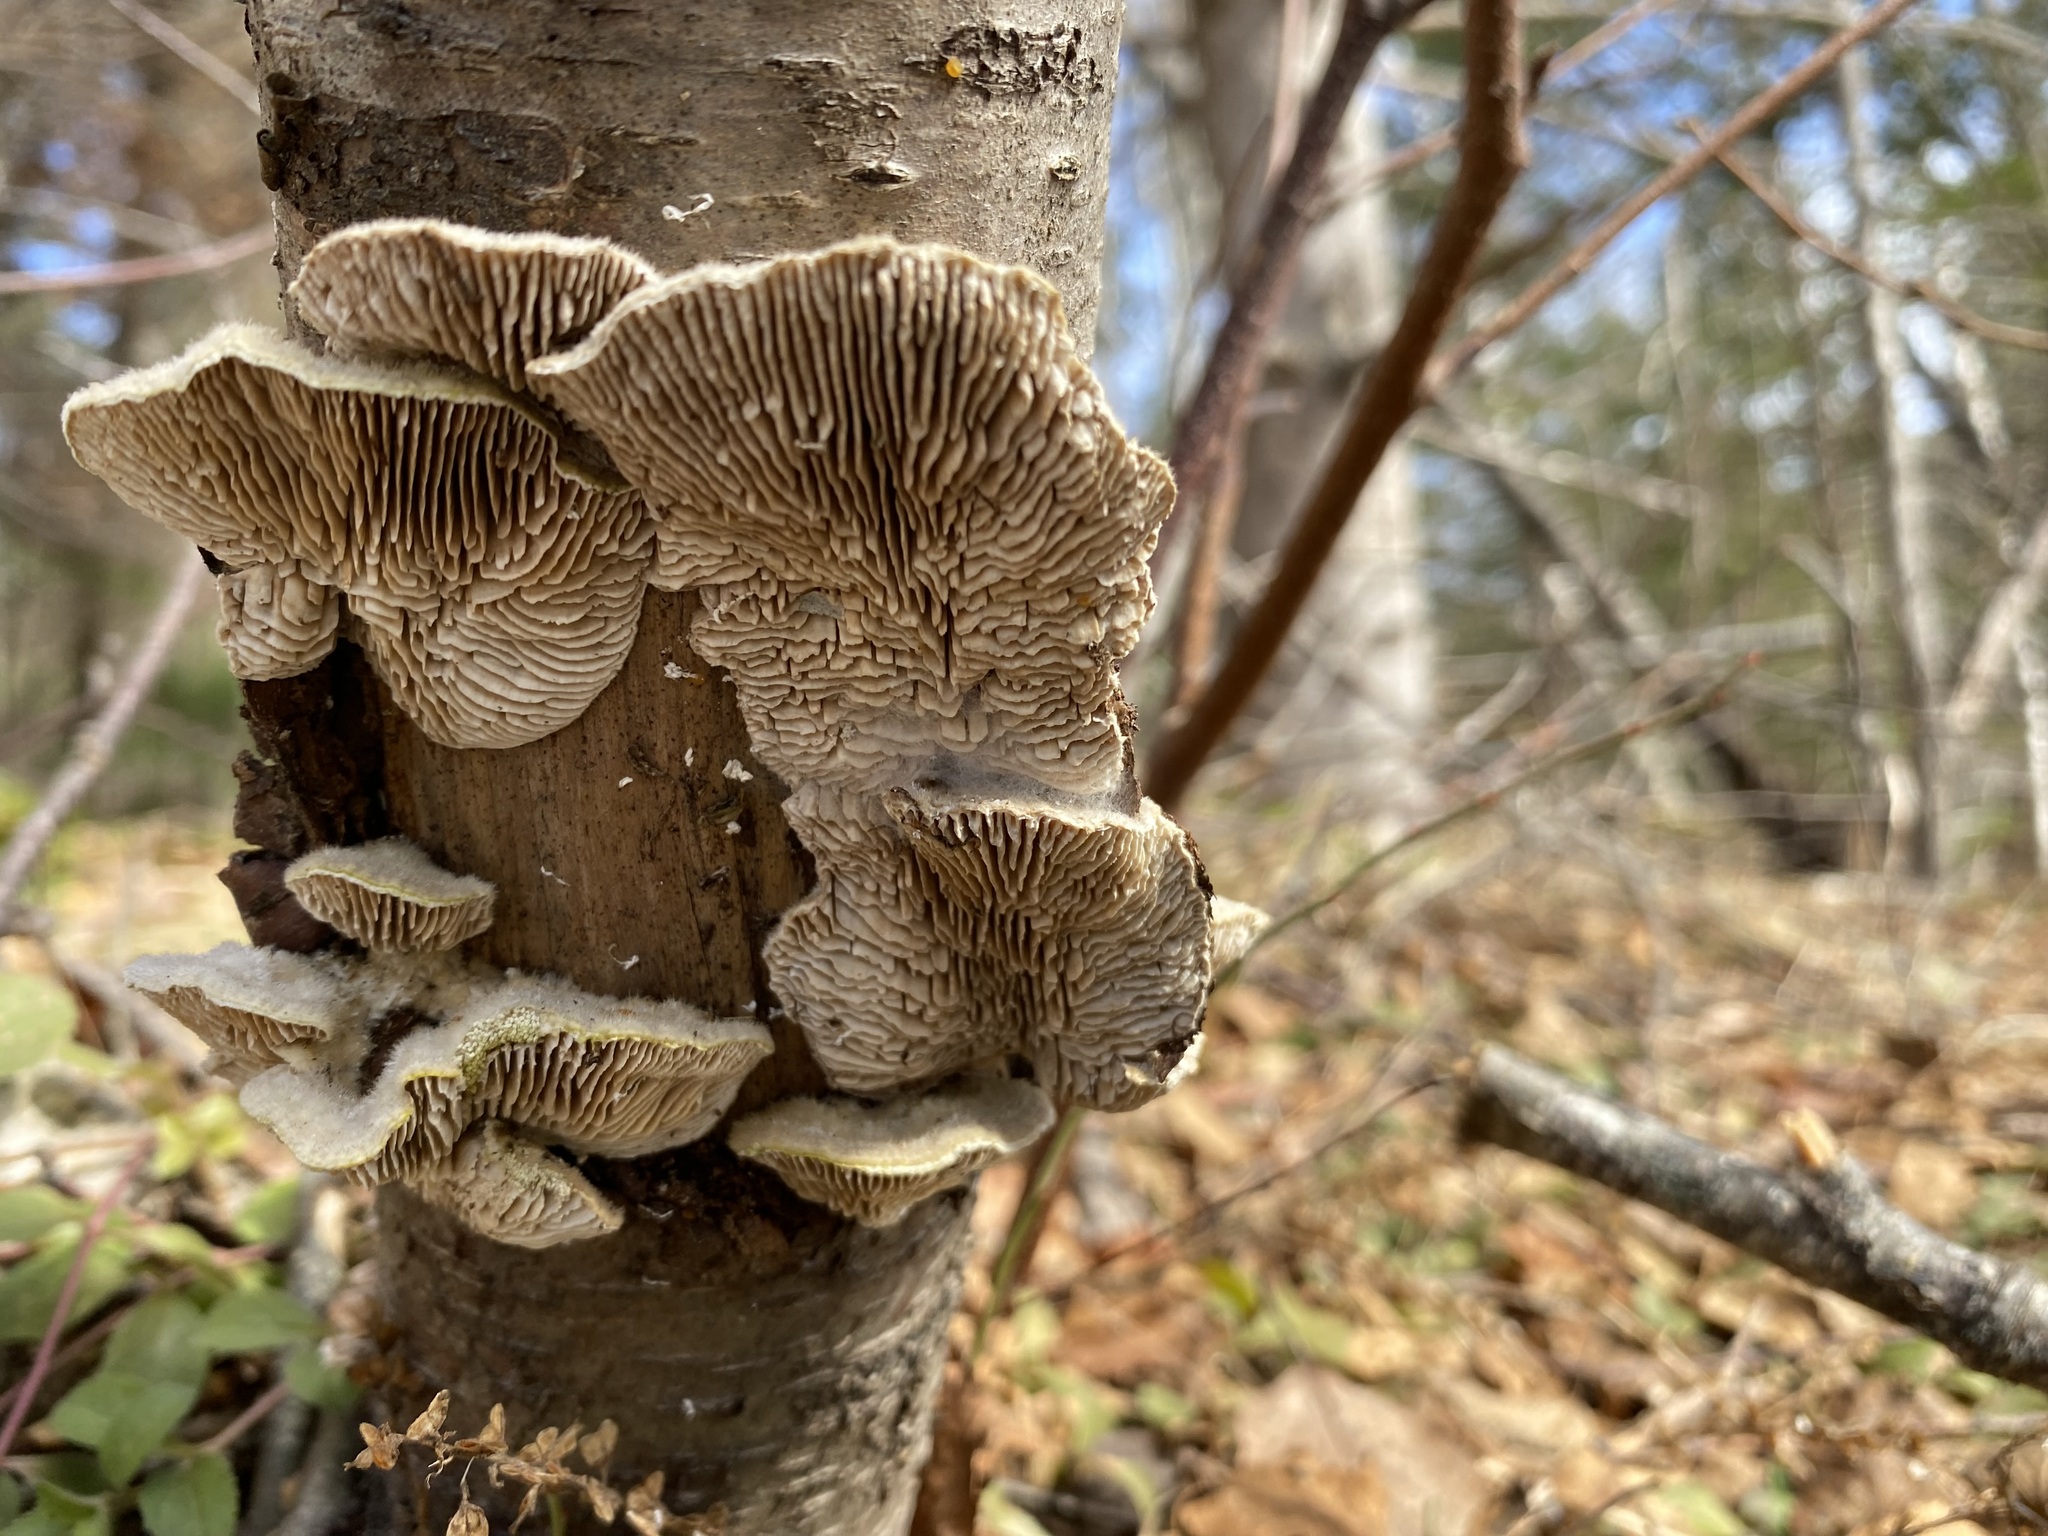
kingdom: Fungi
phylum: Basidiomycota
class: Agaricomycetes
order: Polyporales
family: Polyporaceae
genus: Lenzites
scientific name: Lenzites betulinus
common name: Birch mazegill
